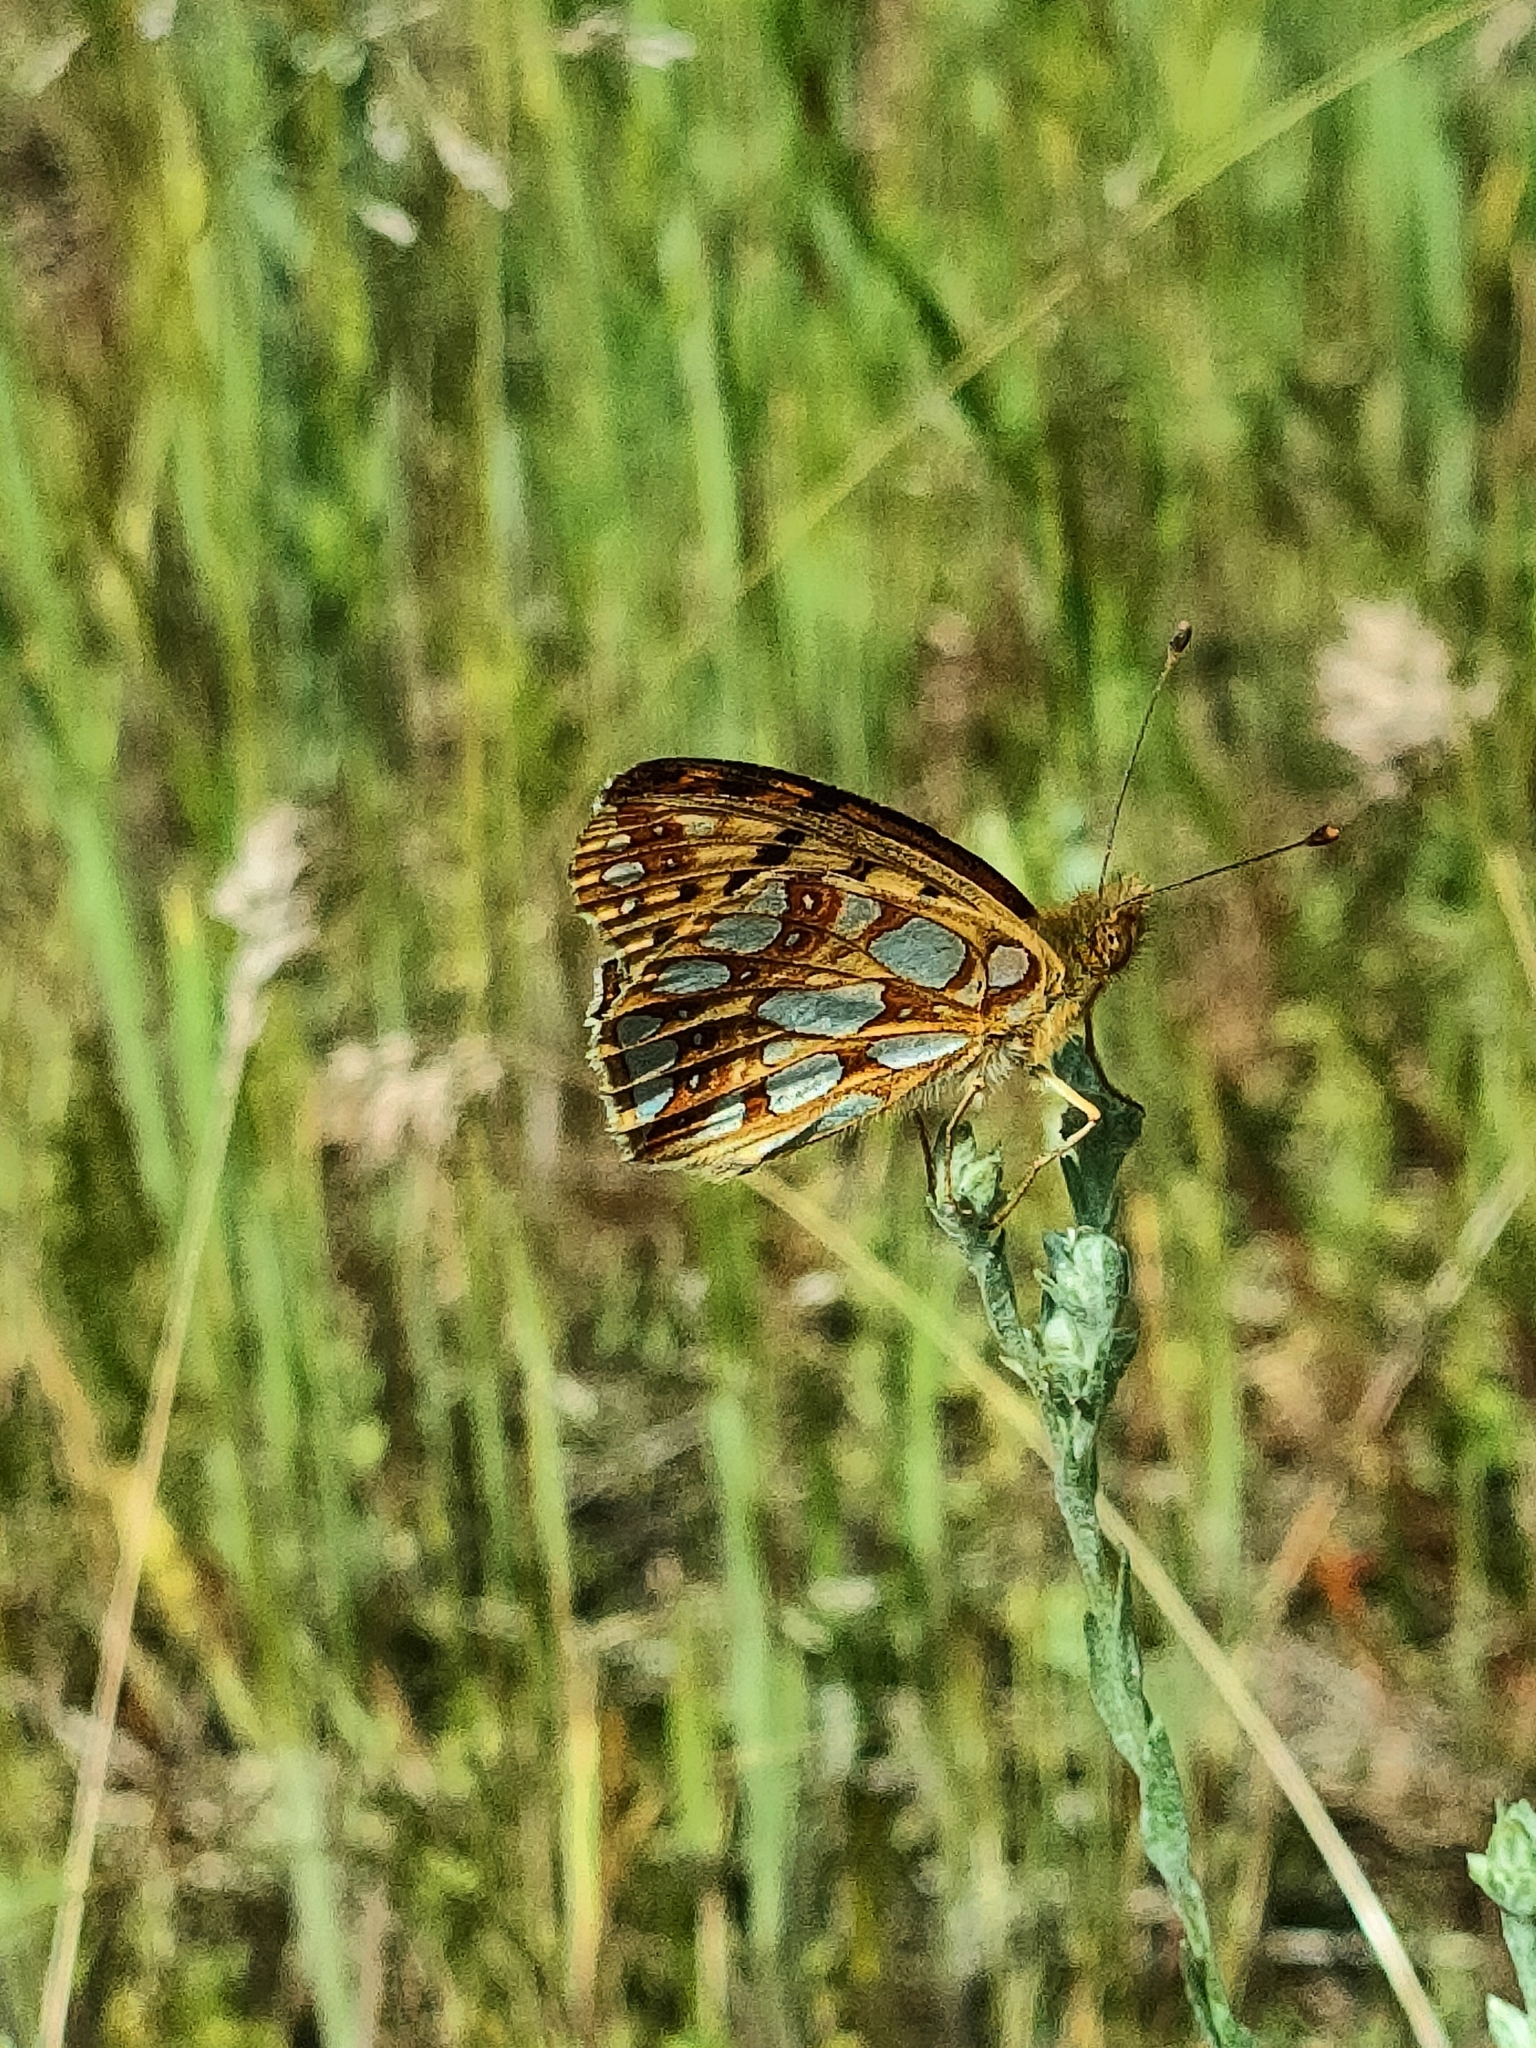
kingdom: Animalia
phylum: Arthropoda
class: Insecta
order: Lepidoptera
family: Nymphalidae
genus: Issoria
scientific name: Issoria lathonia
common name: Queen of spain fritillary
